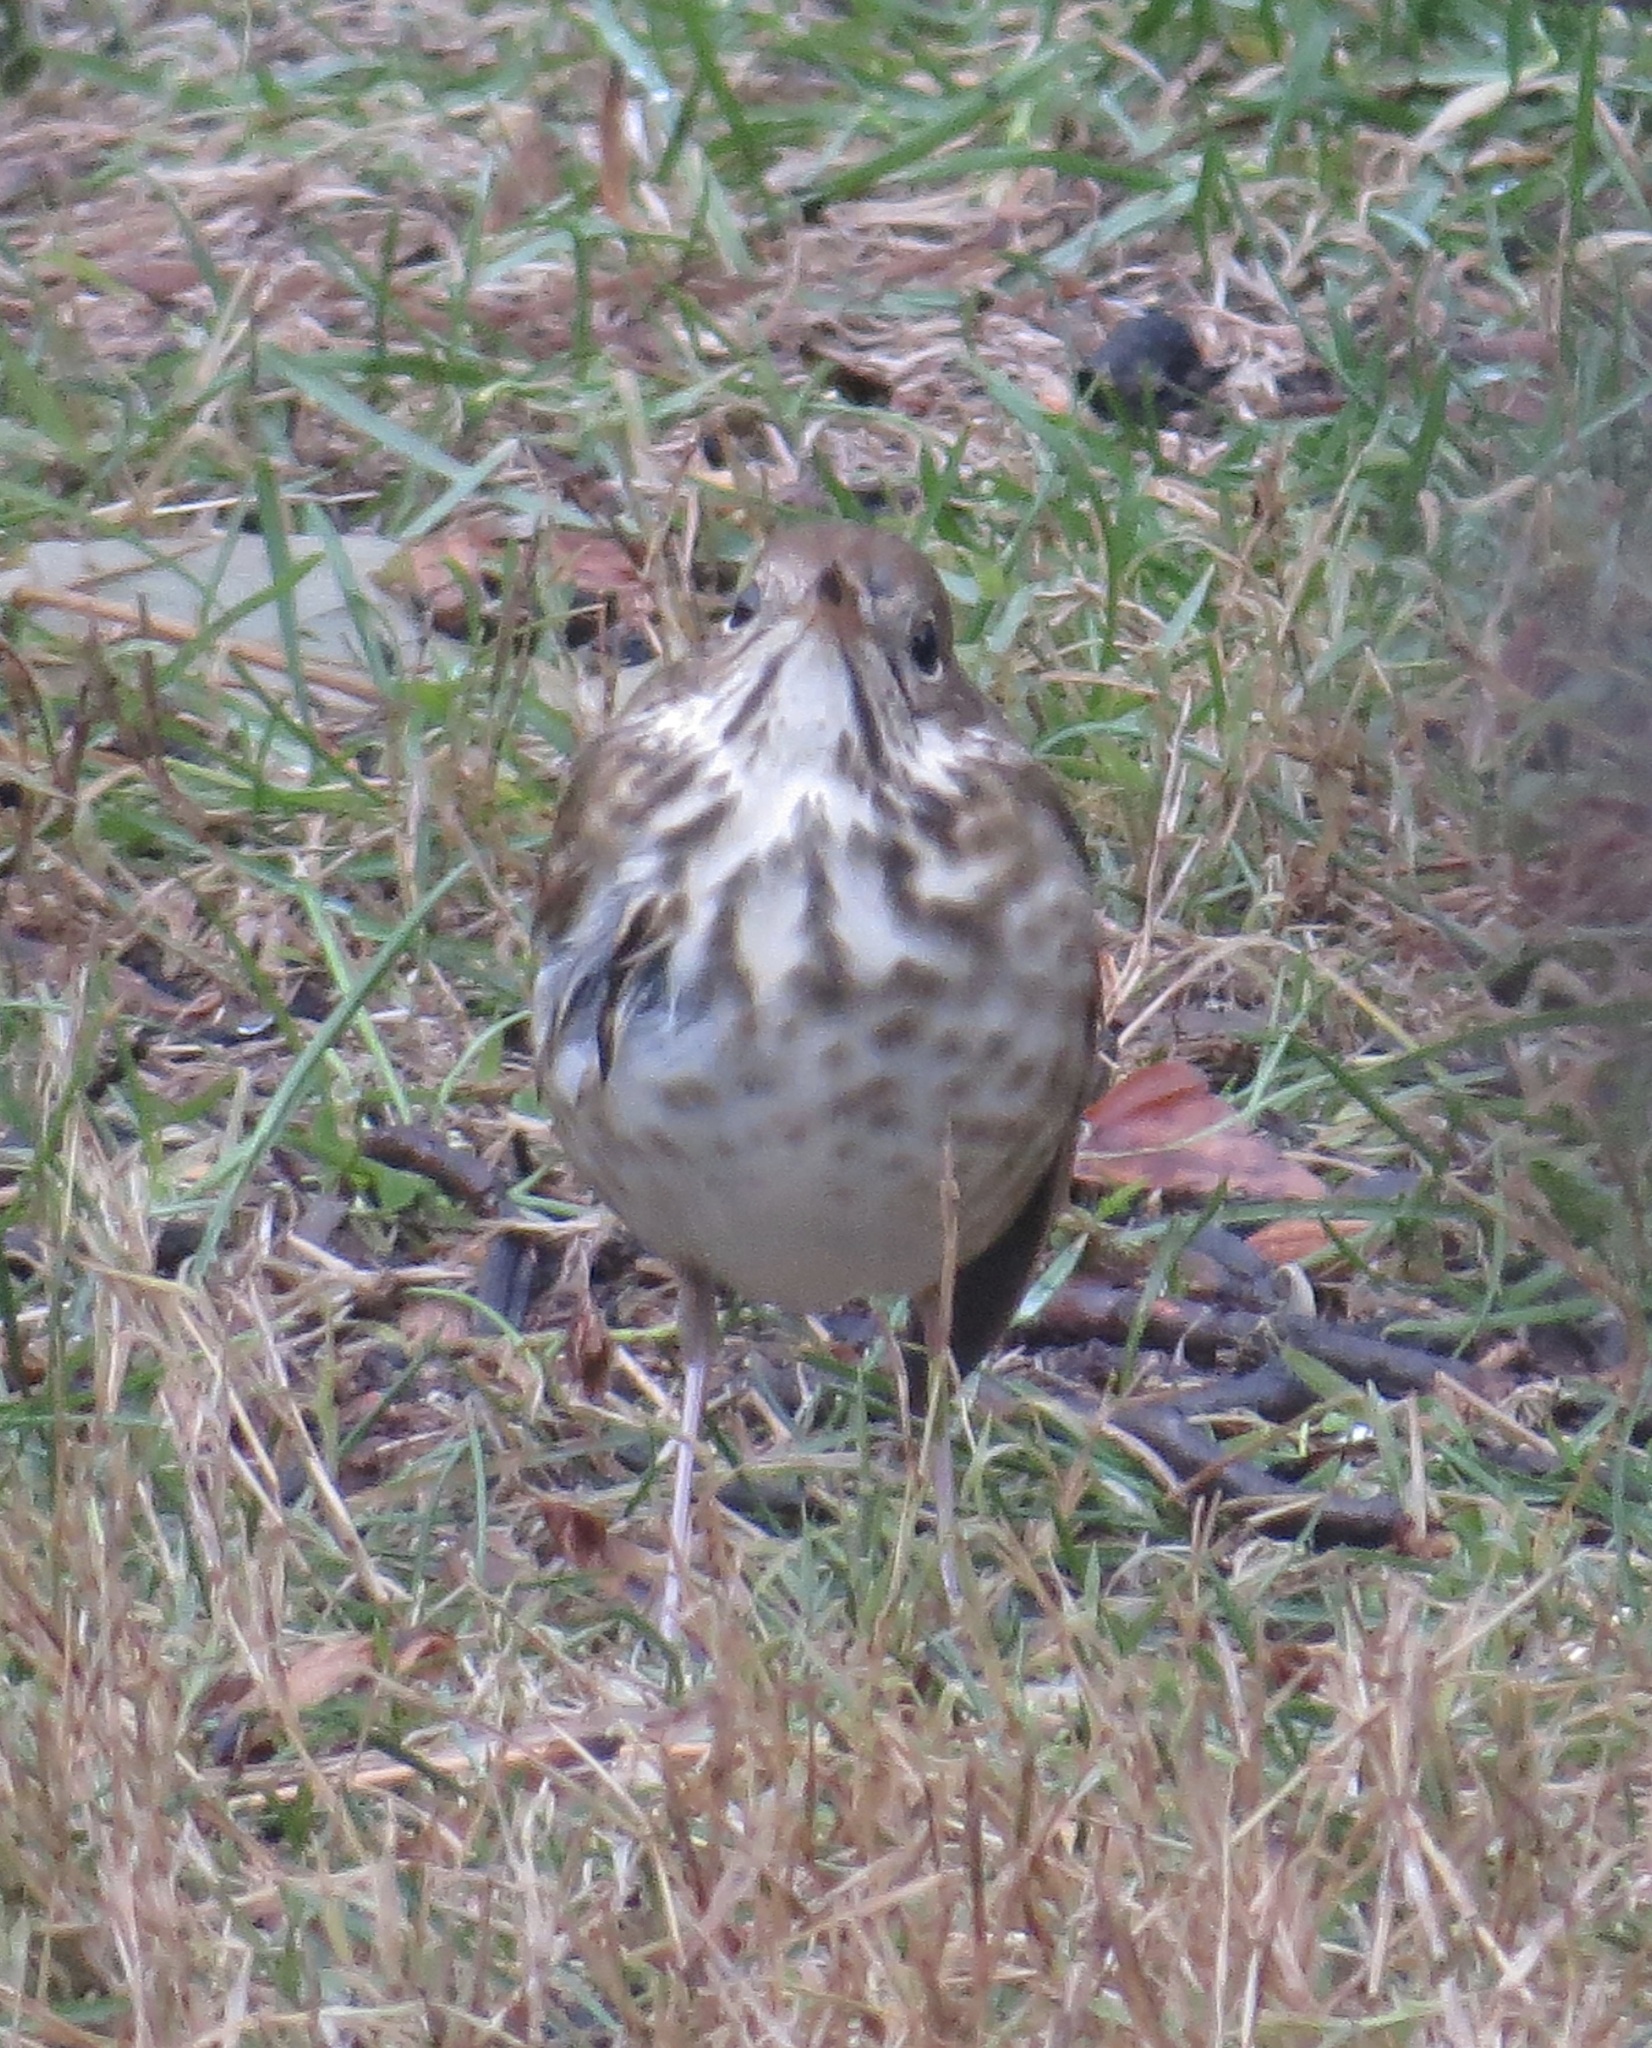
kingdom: Animalia
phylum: Chordata
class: Aves
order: Passeriformes
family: Turdidae
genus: Catharus
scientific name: Catharus guttatus
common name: Hermit thrush
